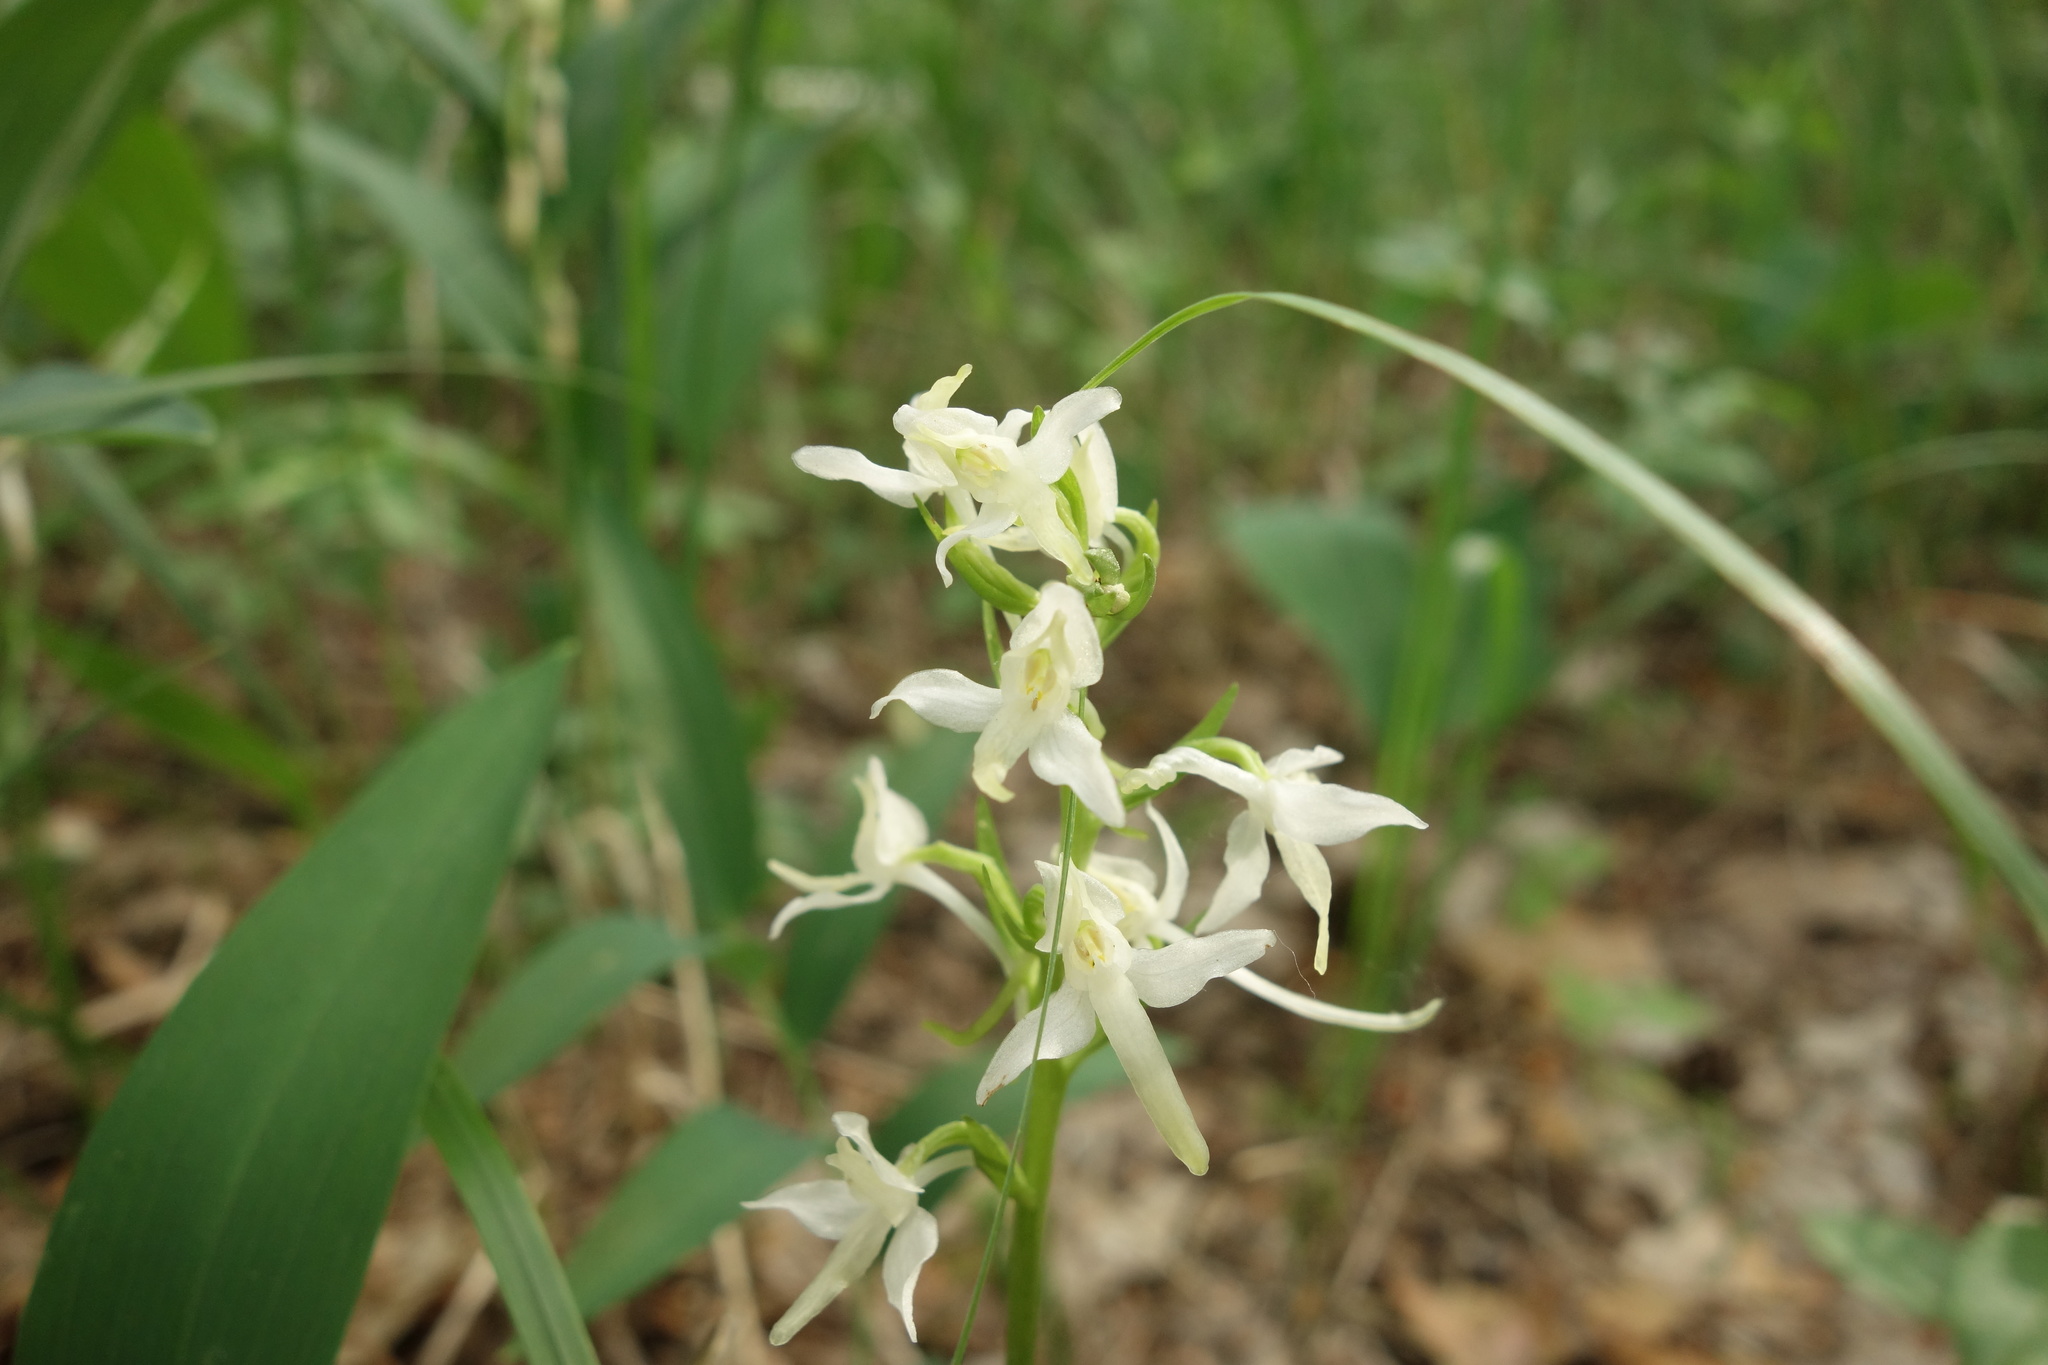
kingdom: Plantae
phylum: Tracheophyta
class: Liliopsida
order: Asparagales
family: Orchidaceae
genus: Platanthera
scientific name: Platanthera bifolia
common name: Lesser butterfly-orchid
